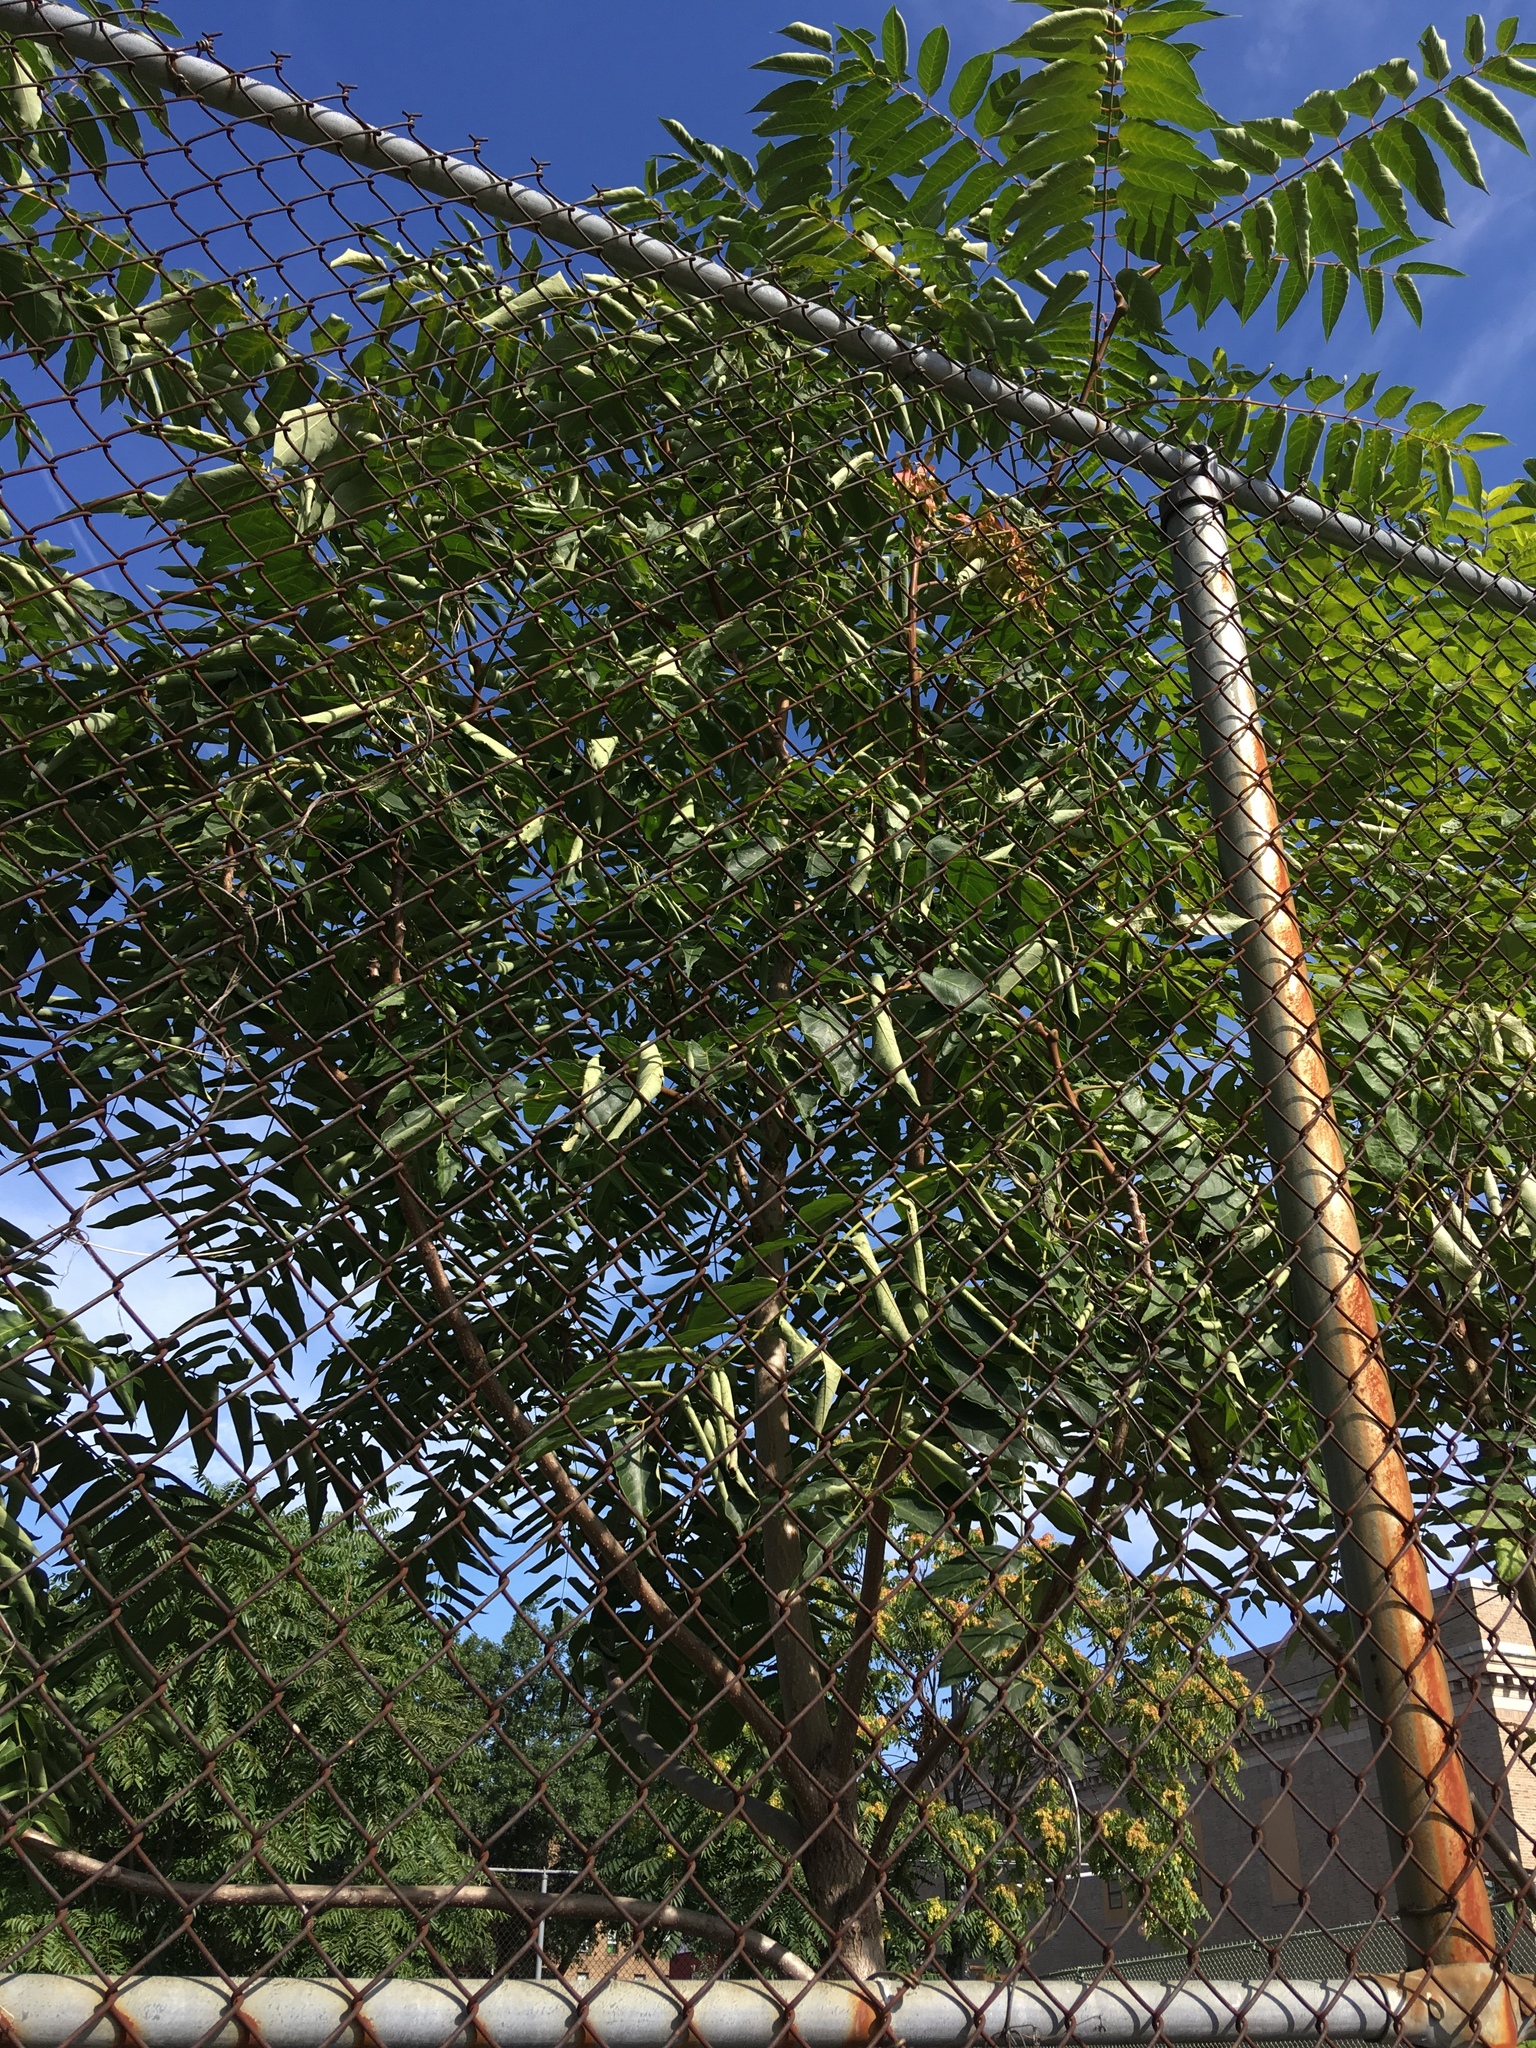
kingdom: Plantae
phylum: Tracheophyta
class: Magnoliopsida
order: Sapindales
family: Simaroubaceae
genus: Ailanthus
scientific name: Ailanthus altissima
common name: Tree-of-heaven
